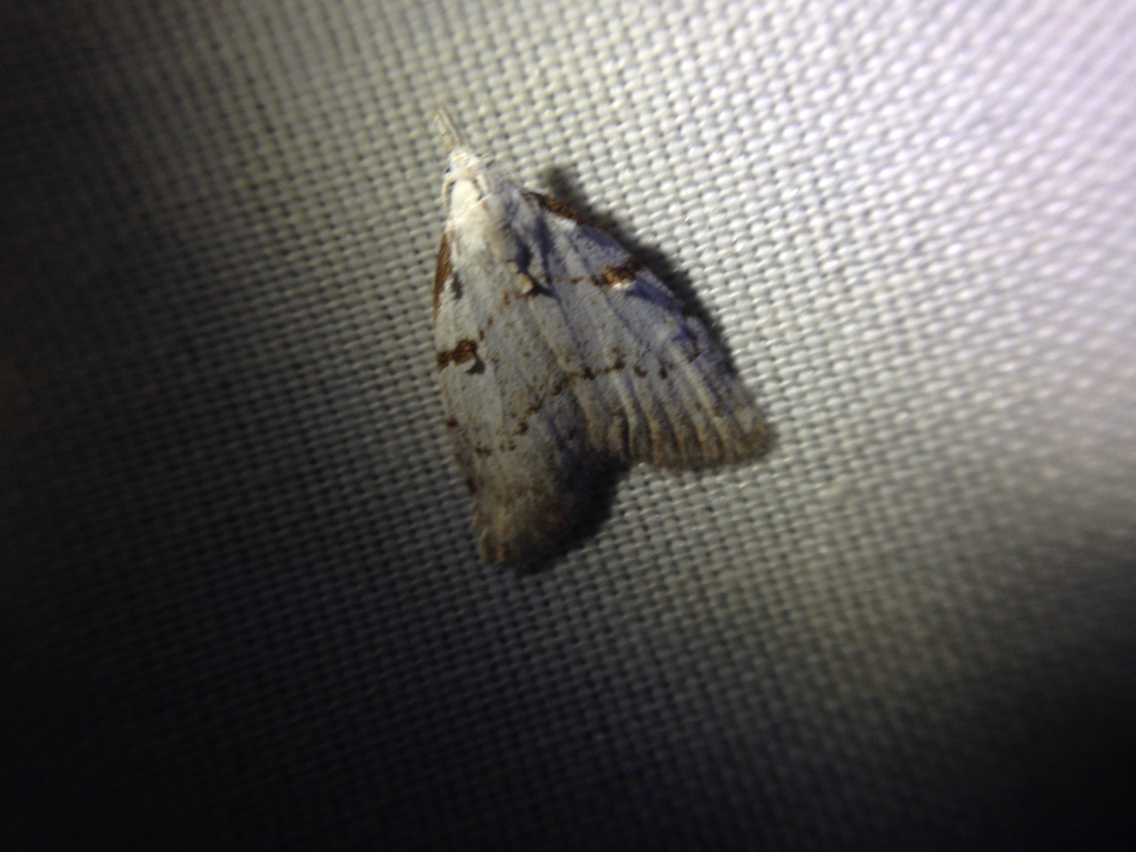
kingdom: Animalia
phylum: Arthropoda
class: Insecta
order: Lepidoptera
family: Nolidae
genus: Nola
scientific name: Nola minna
